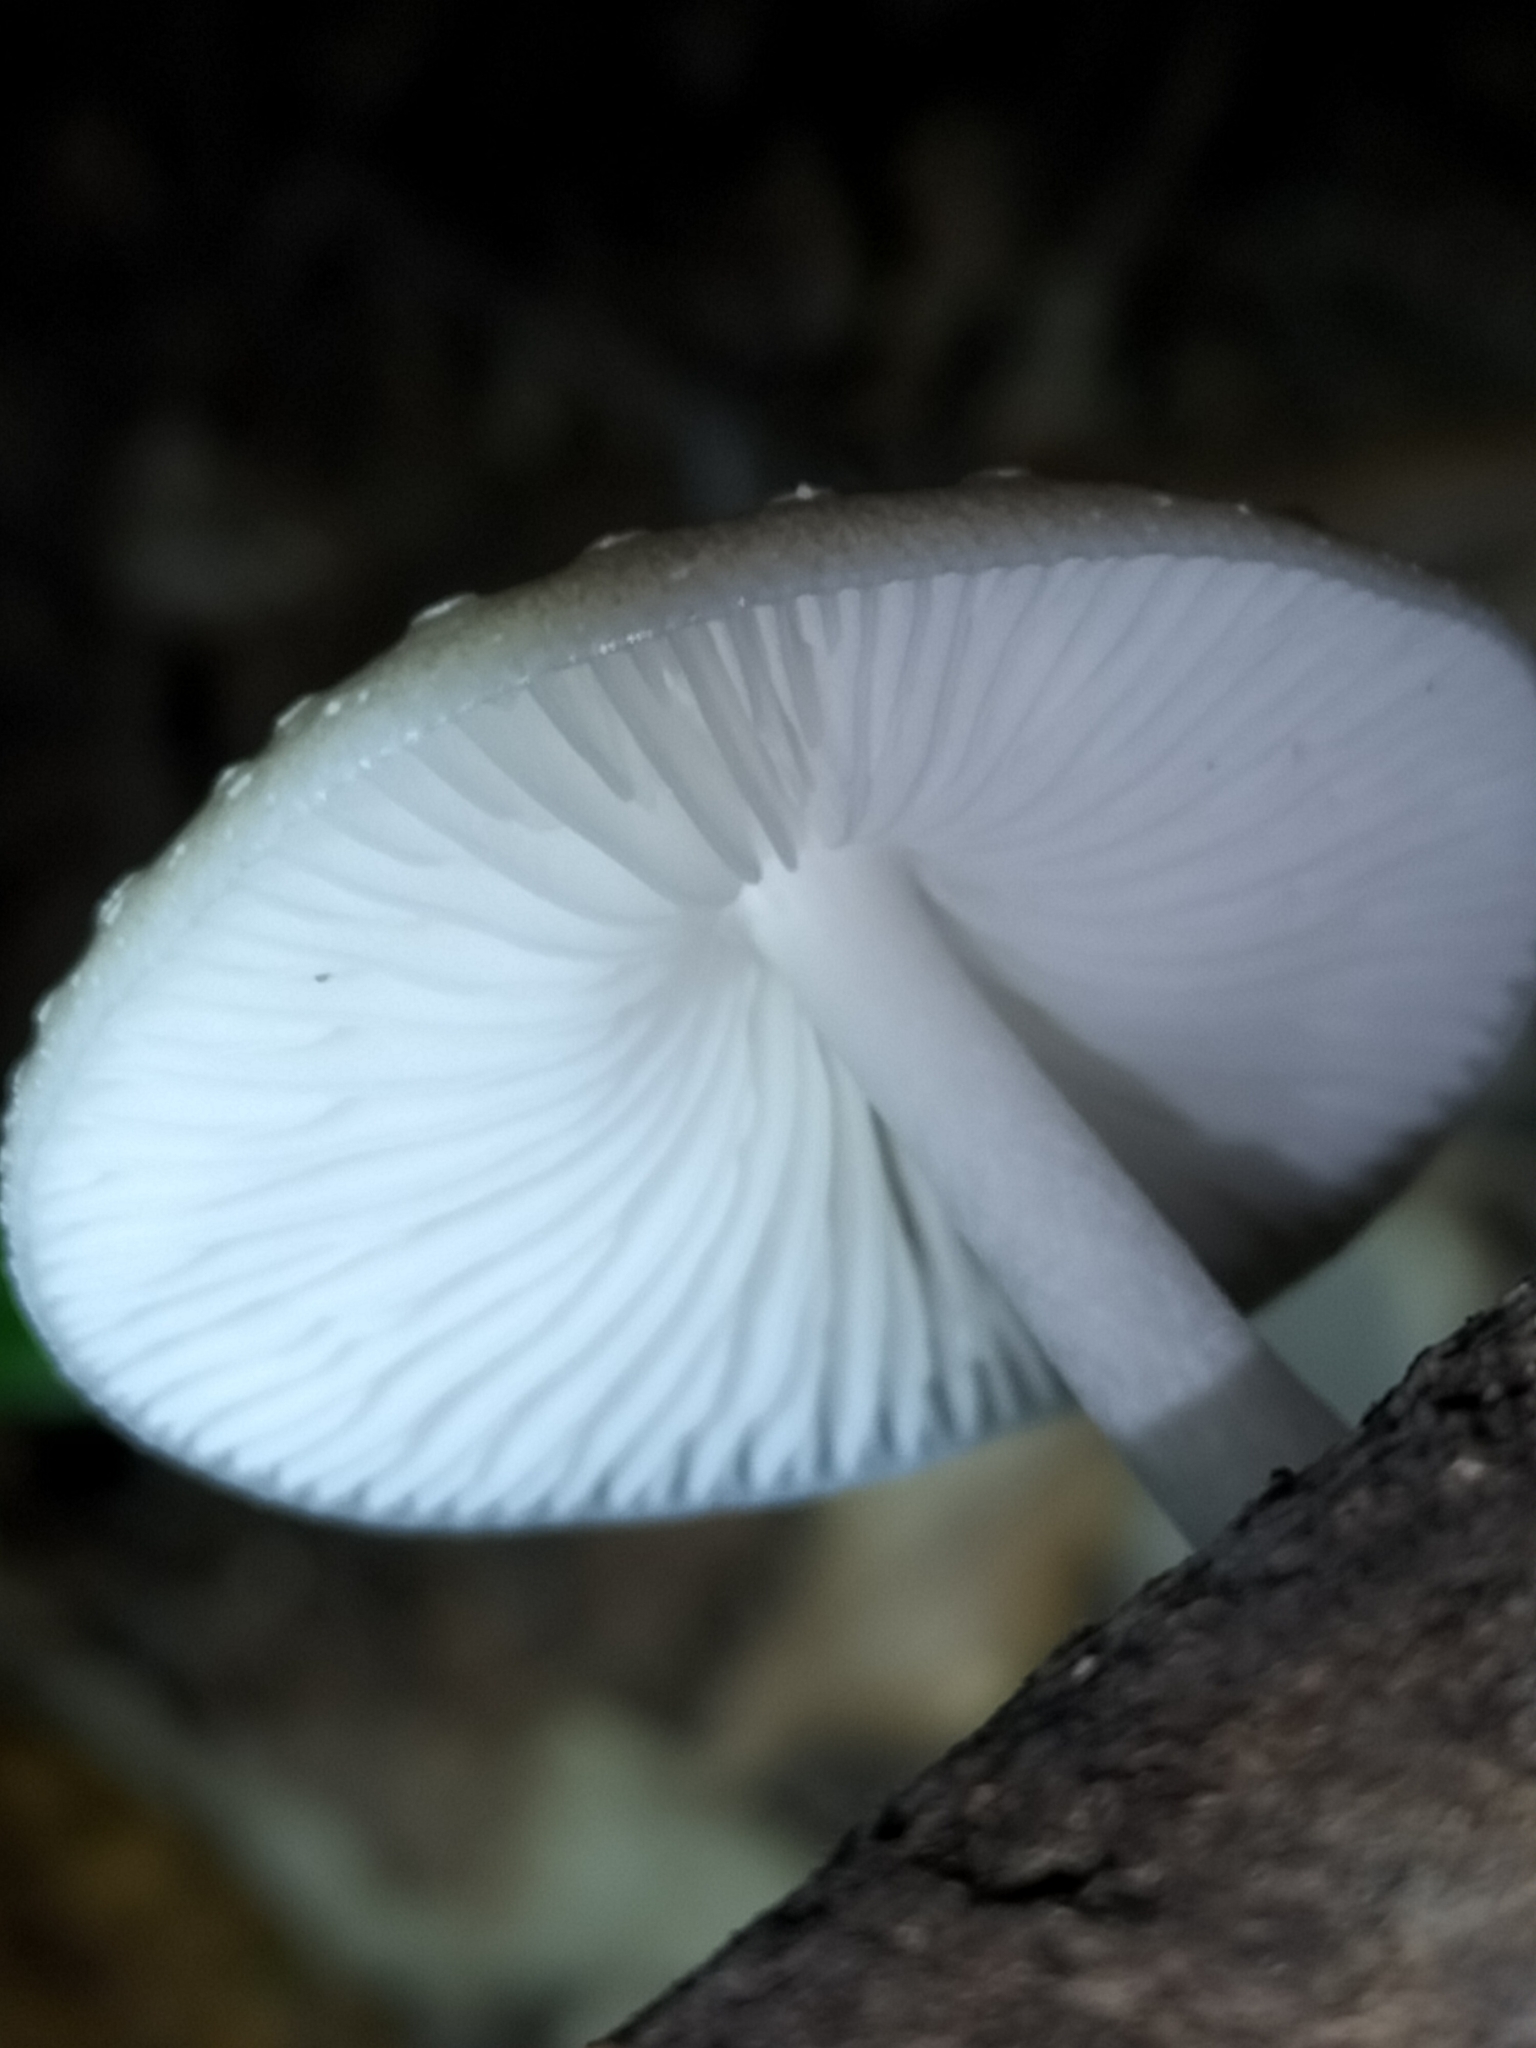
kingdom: Fungi
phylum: Basidiomycota
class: Agaricomycetes
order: Agaricales
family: Physalacriaceae
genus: Oudemansiella
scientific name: Oudemansiella exannulata
